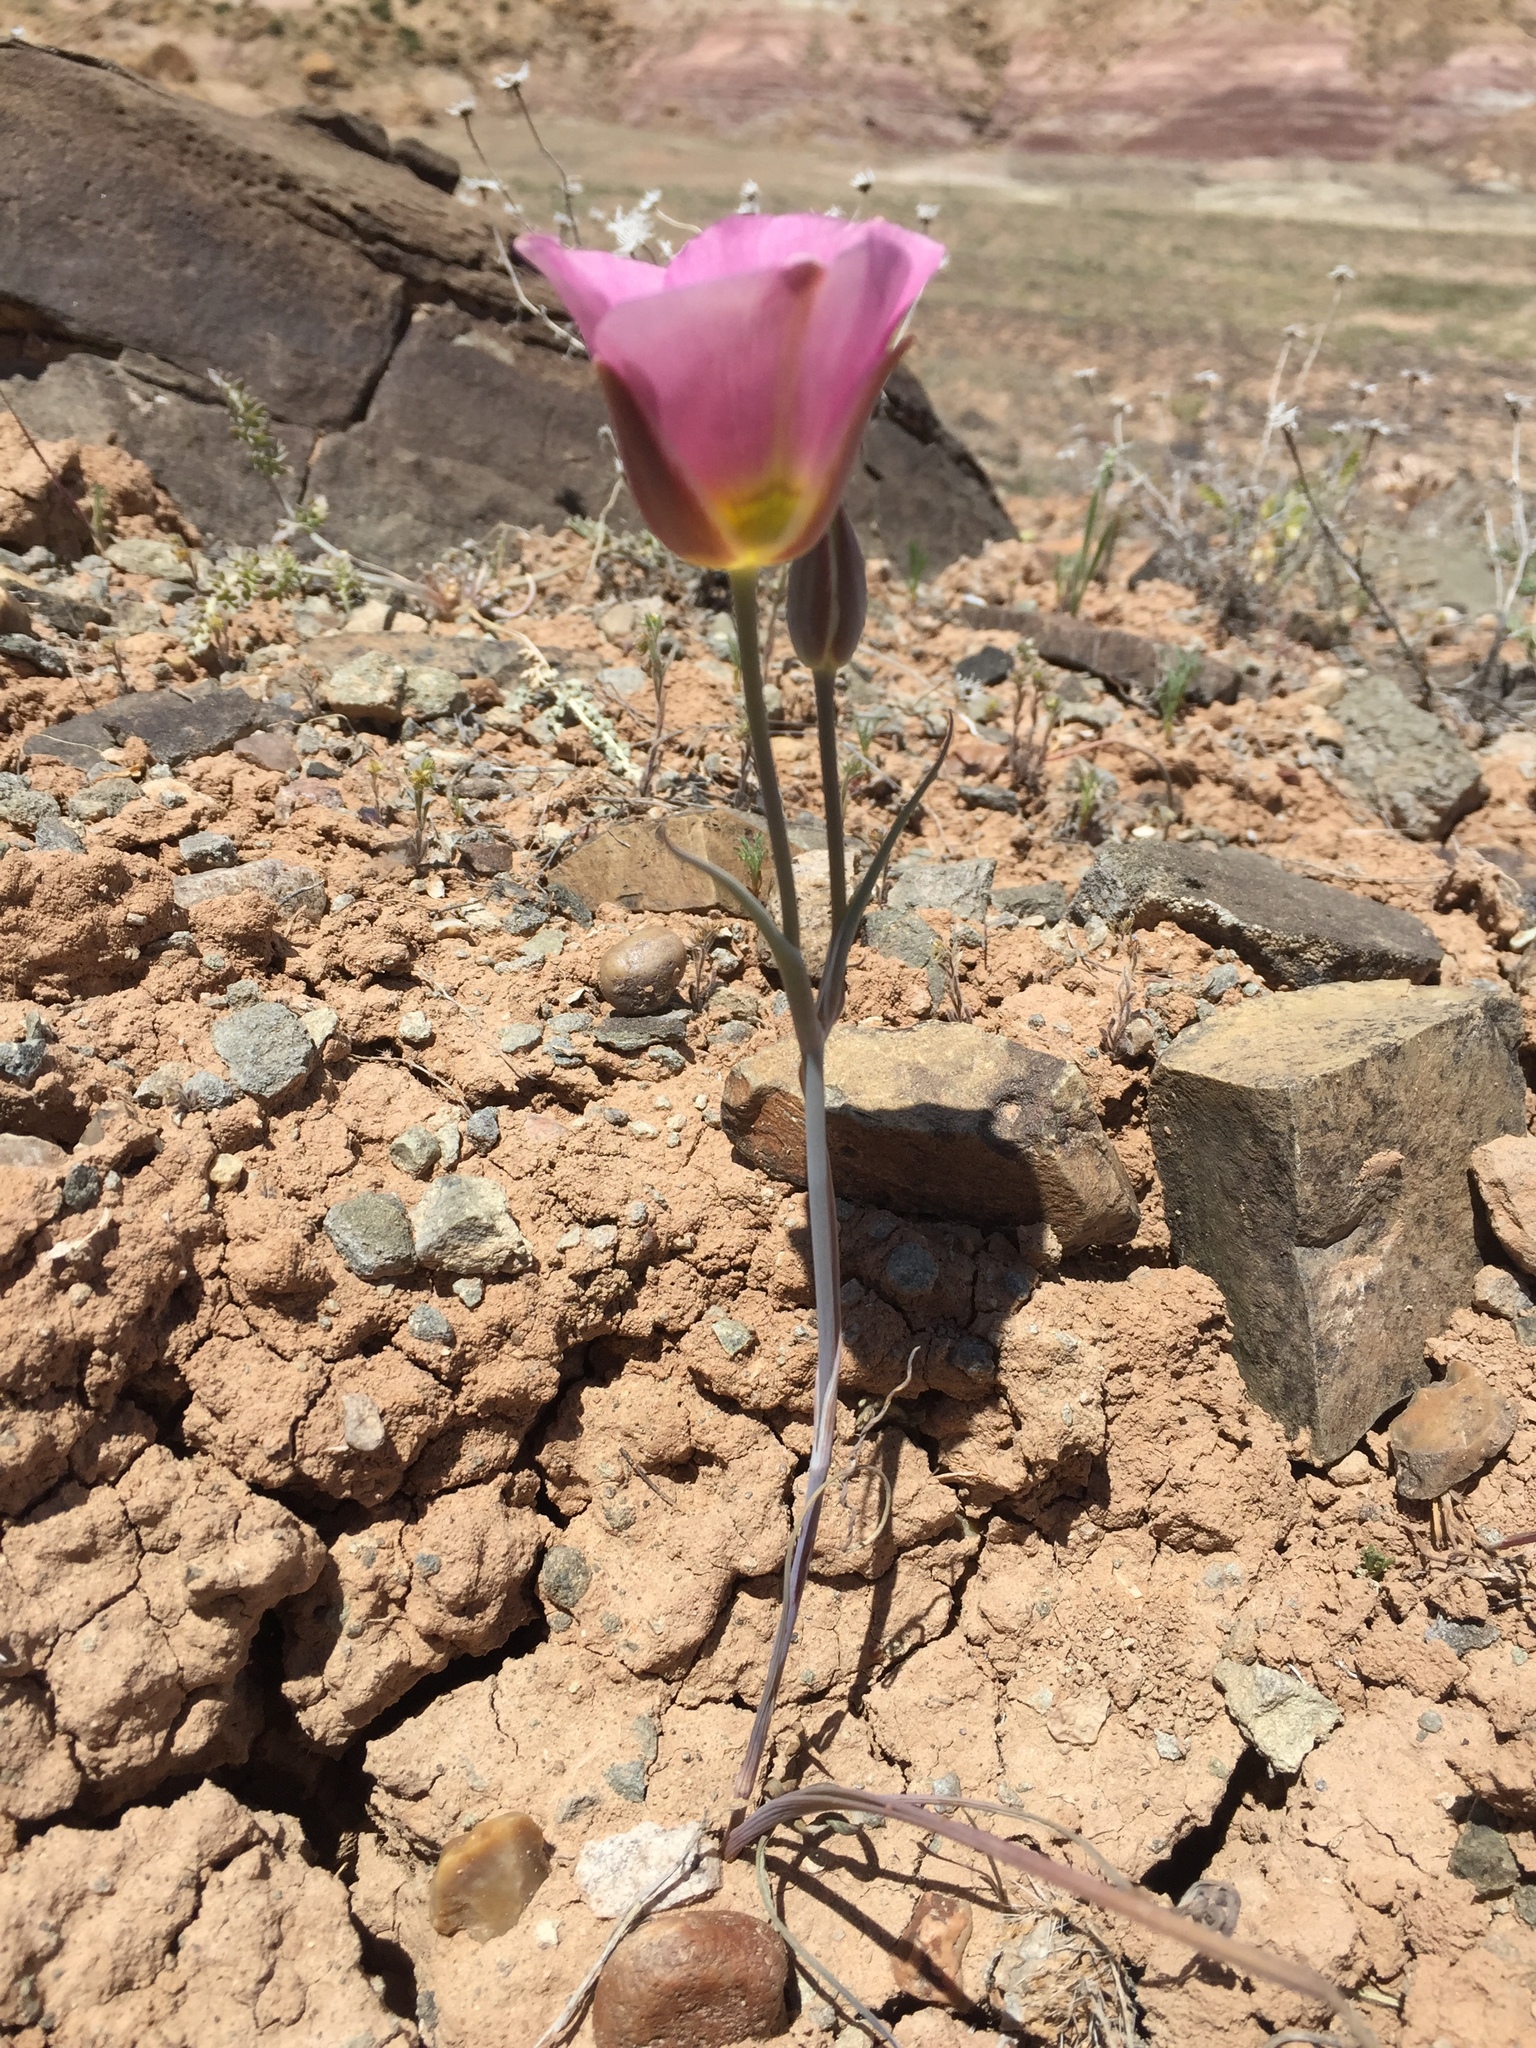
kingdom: Plantae
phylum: Tracheophyta
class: Liliopsida
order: Liliales
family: Liliaceae
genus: Calochortus
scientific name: Calochortus nuttallii
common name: Sego-lily
